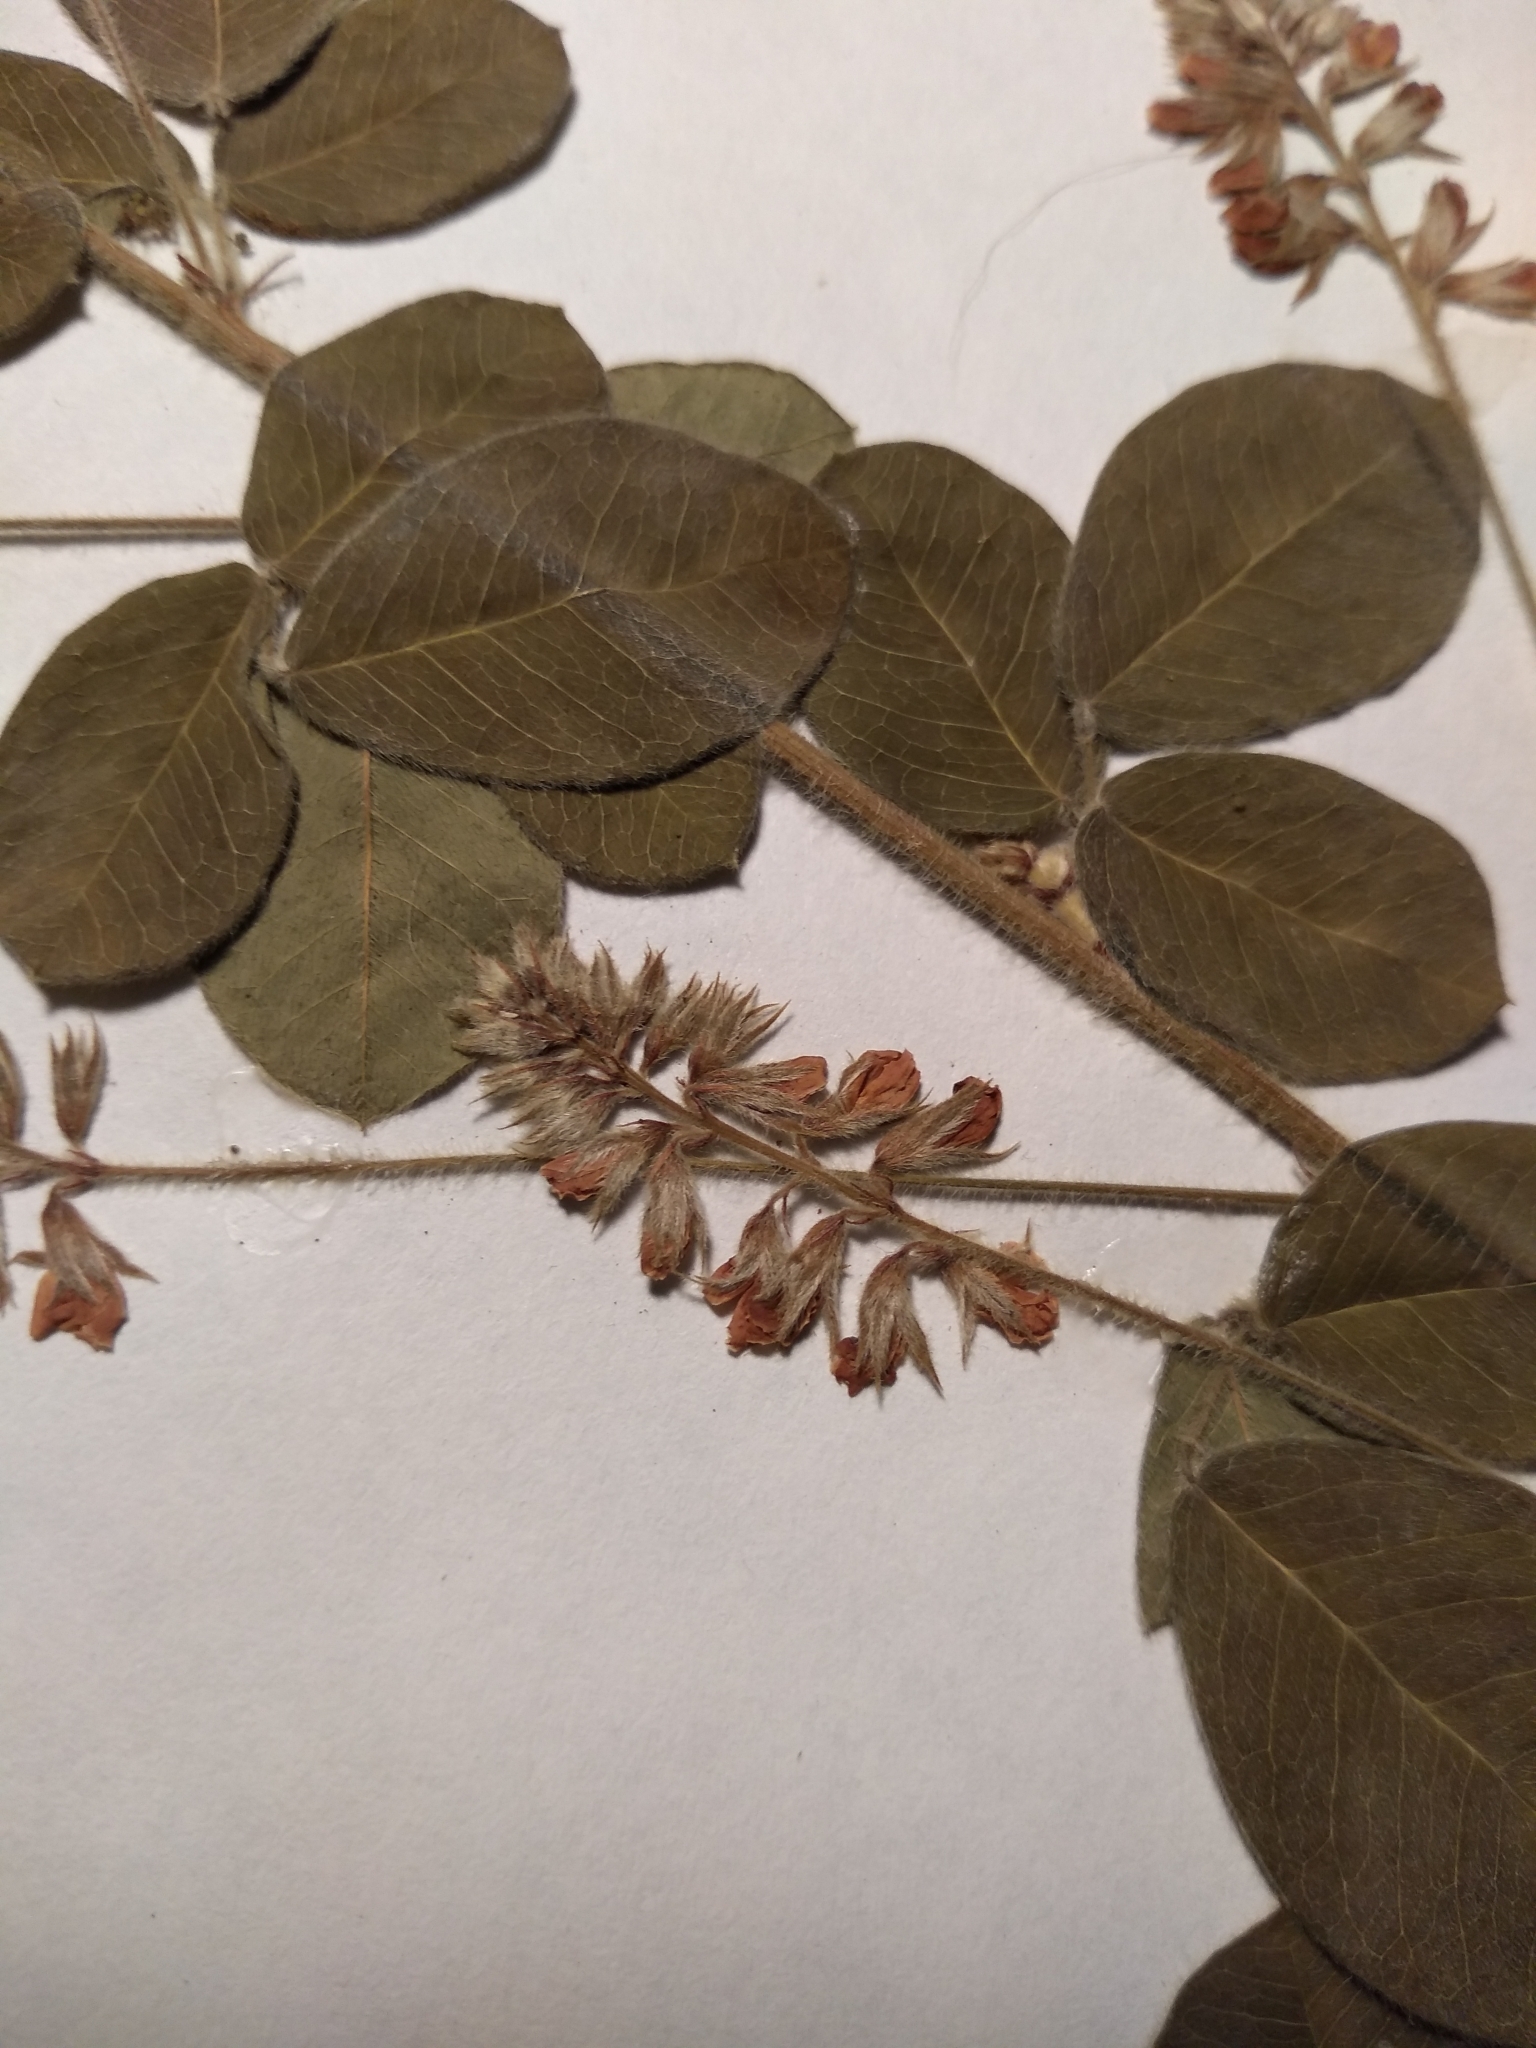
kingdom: Plantae
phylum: Tracheophyta
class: Magnoliopsida
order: Fabales
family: Fabaceae
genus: Lespedeza
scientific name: Lespedeza hirta
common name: Hairy lespedeza
